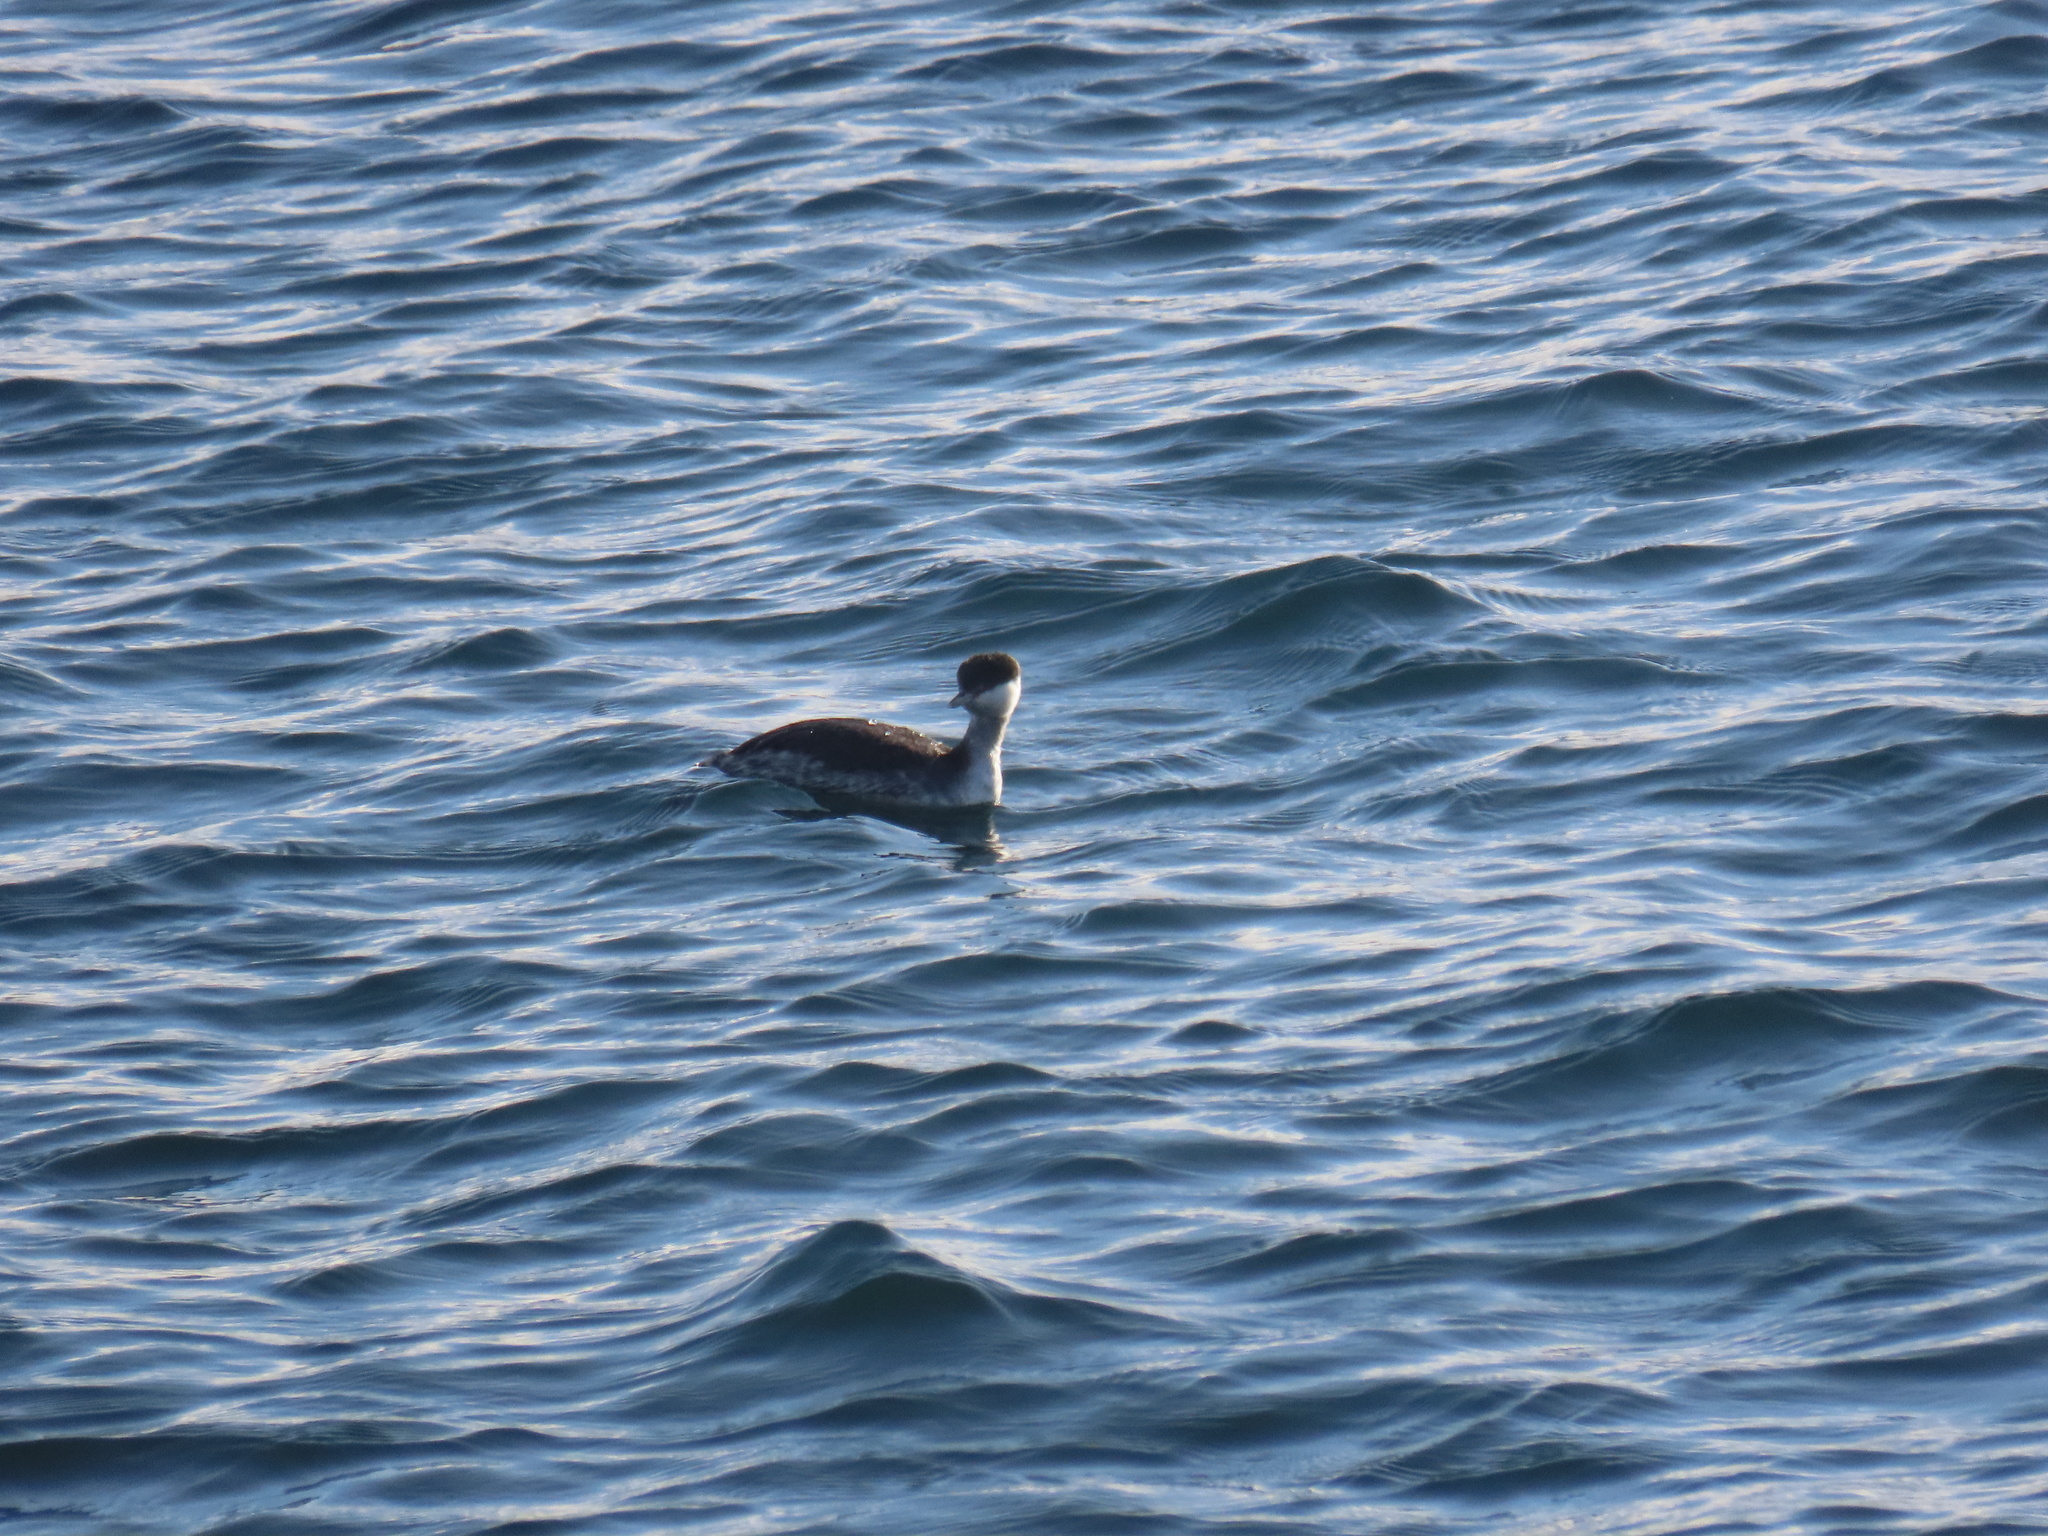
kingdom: Animalia
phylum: Chordata
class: Aves
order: Podicipediformes
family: Podicipedidae
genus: Podiceps
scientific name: Podiceps auritus
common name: Horned grebe
